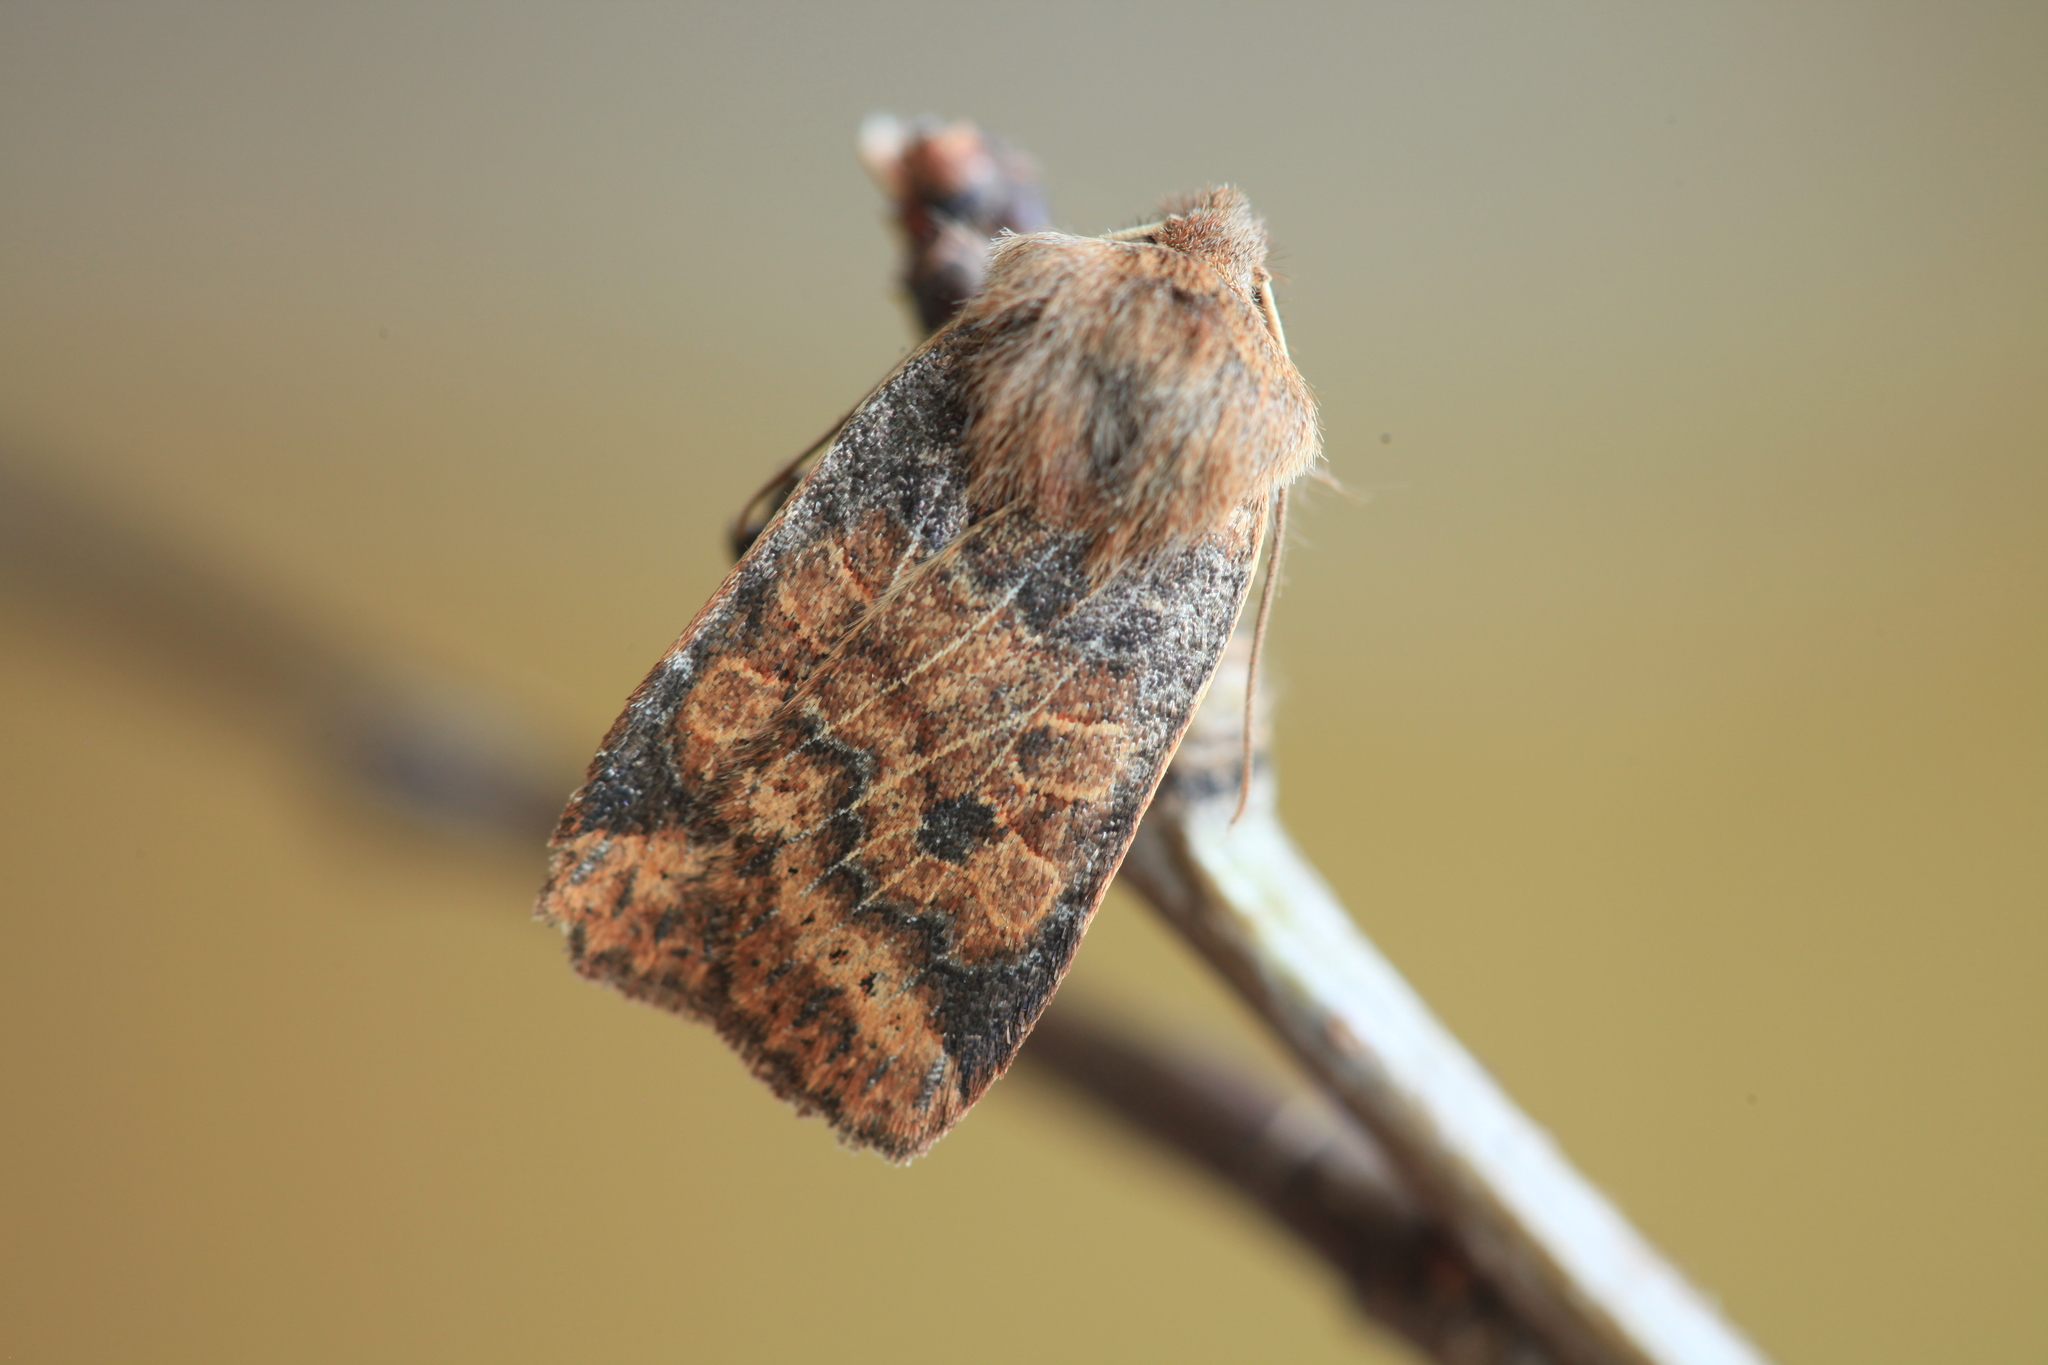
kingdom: Animalia
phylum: Arthropoda
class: Insecta
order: Lepidoptera
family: Noctuidae
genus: Conistra
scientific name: Conistra vaccinii
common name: Chestnut
